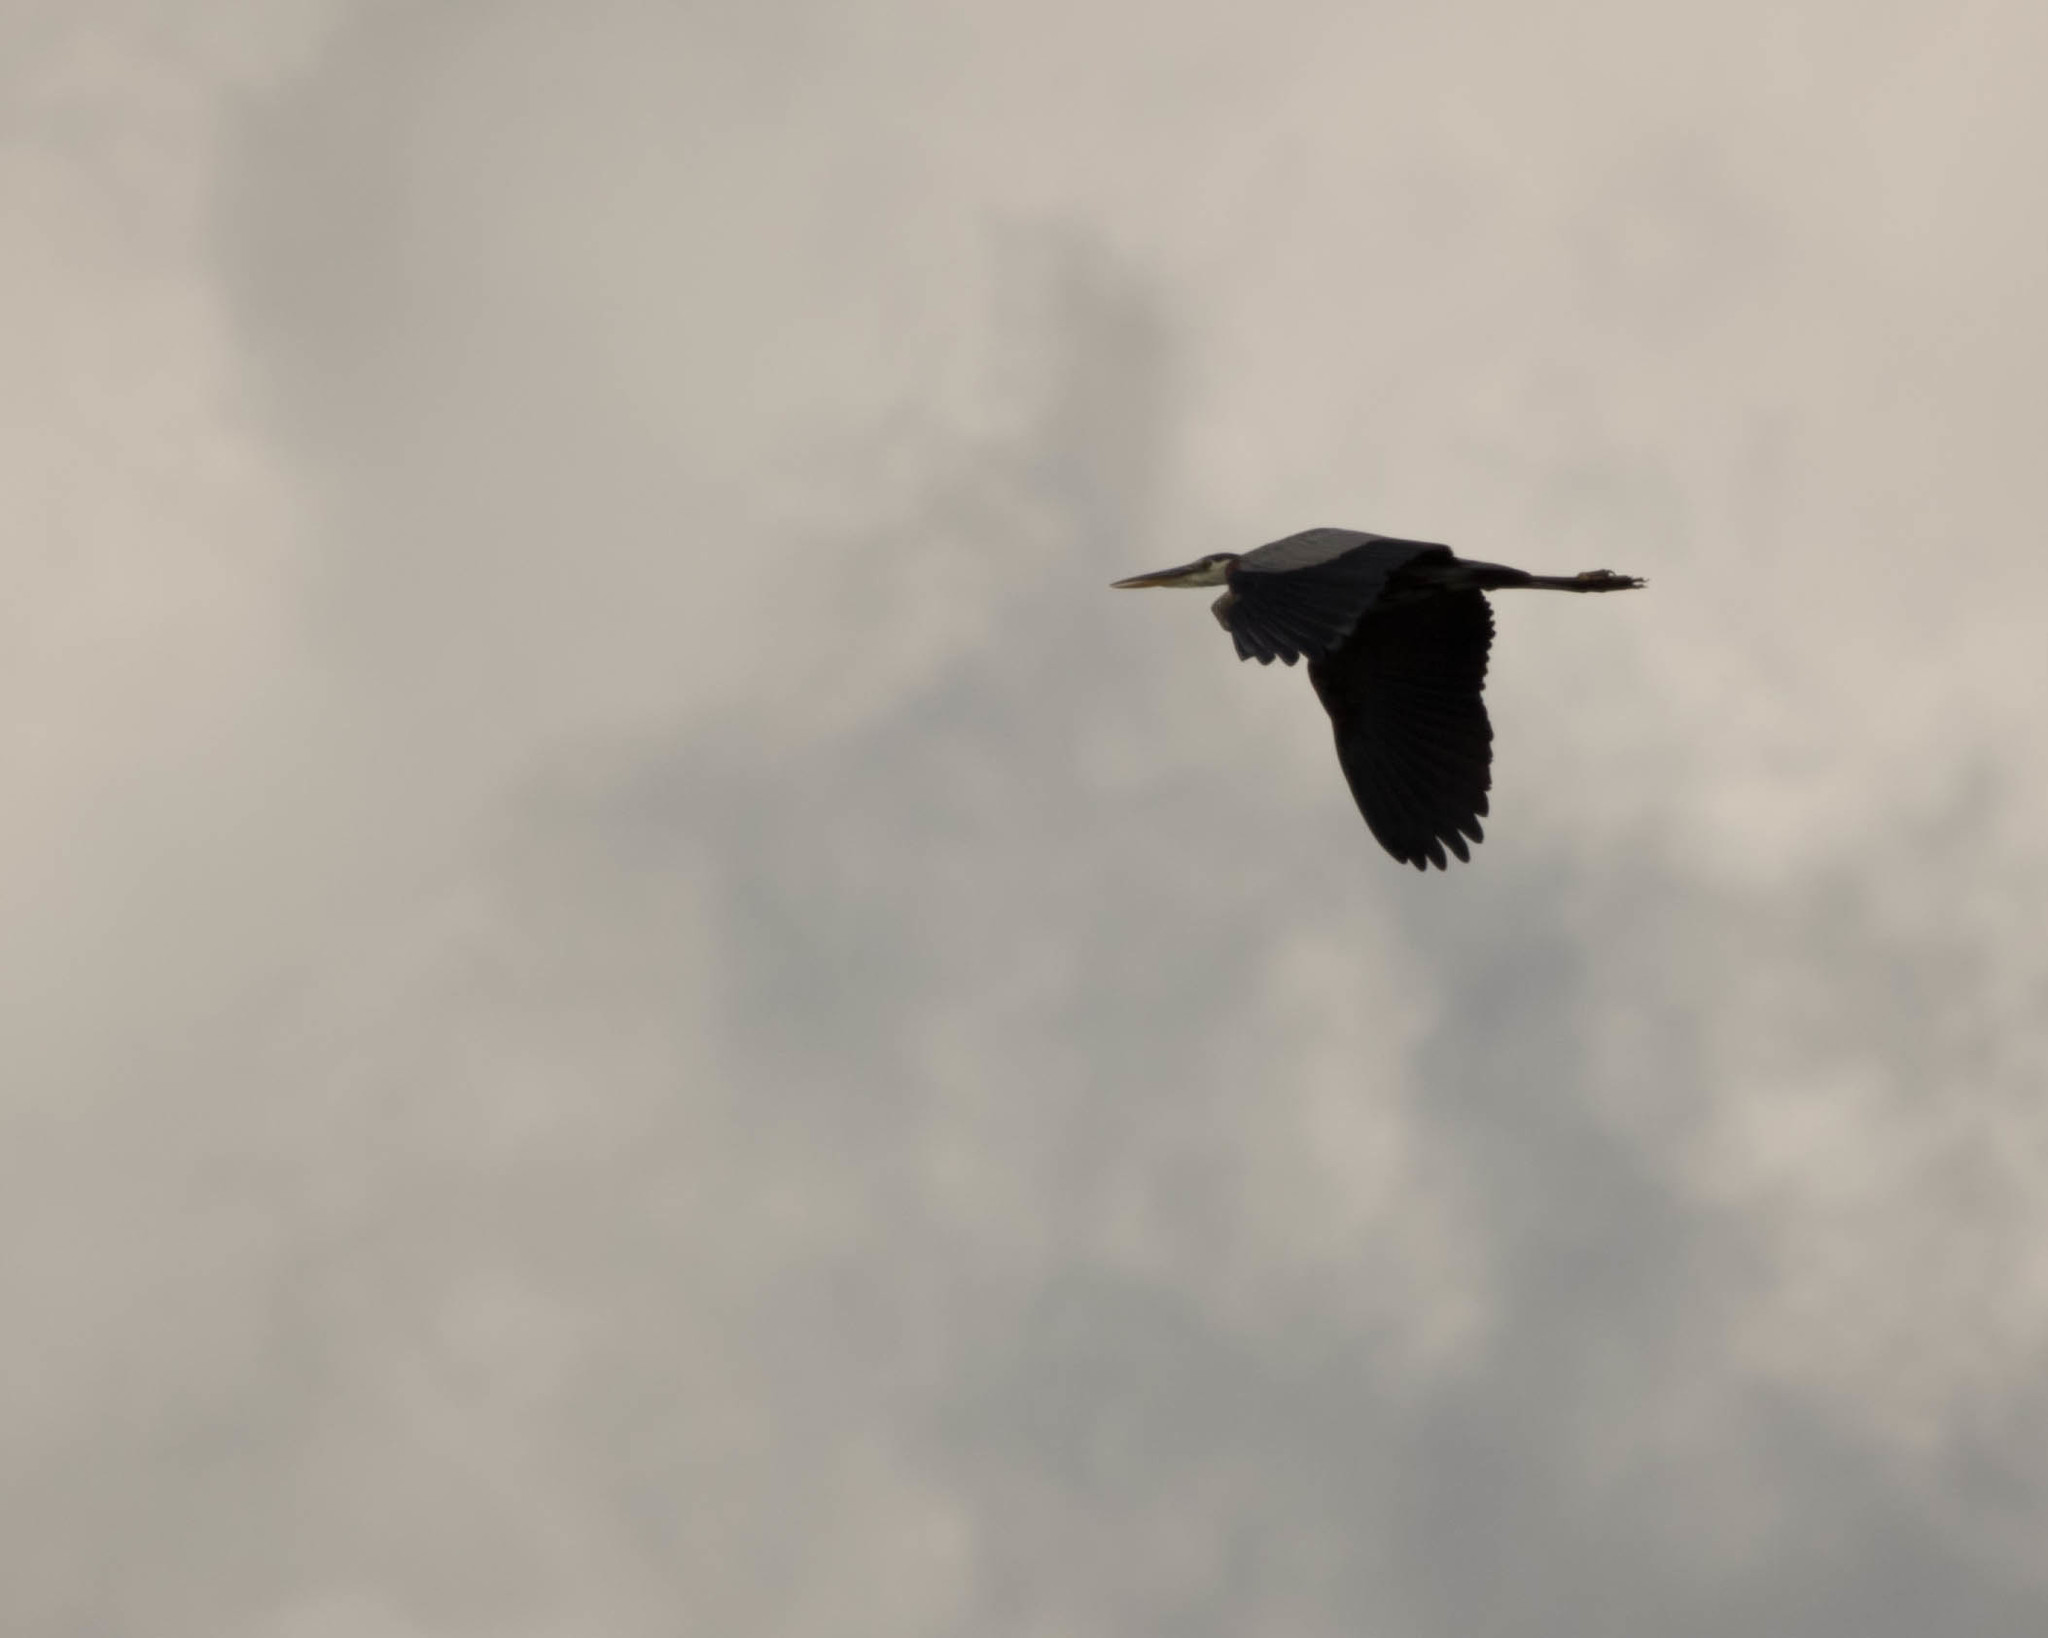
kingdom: Animalia
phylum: Chordata
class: Aves
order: Pelecaniformes
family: Ardeidae
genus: Ardea
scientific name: Ardea herodias
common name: Great blue heron
